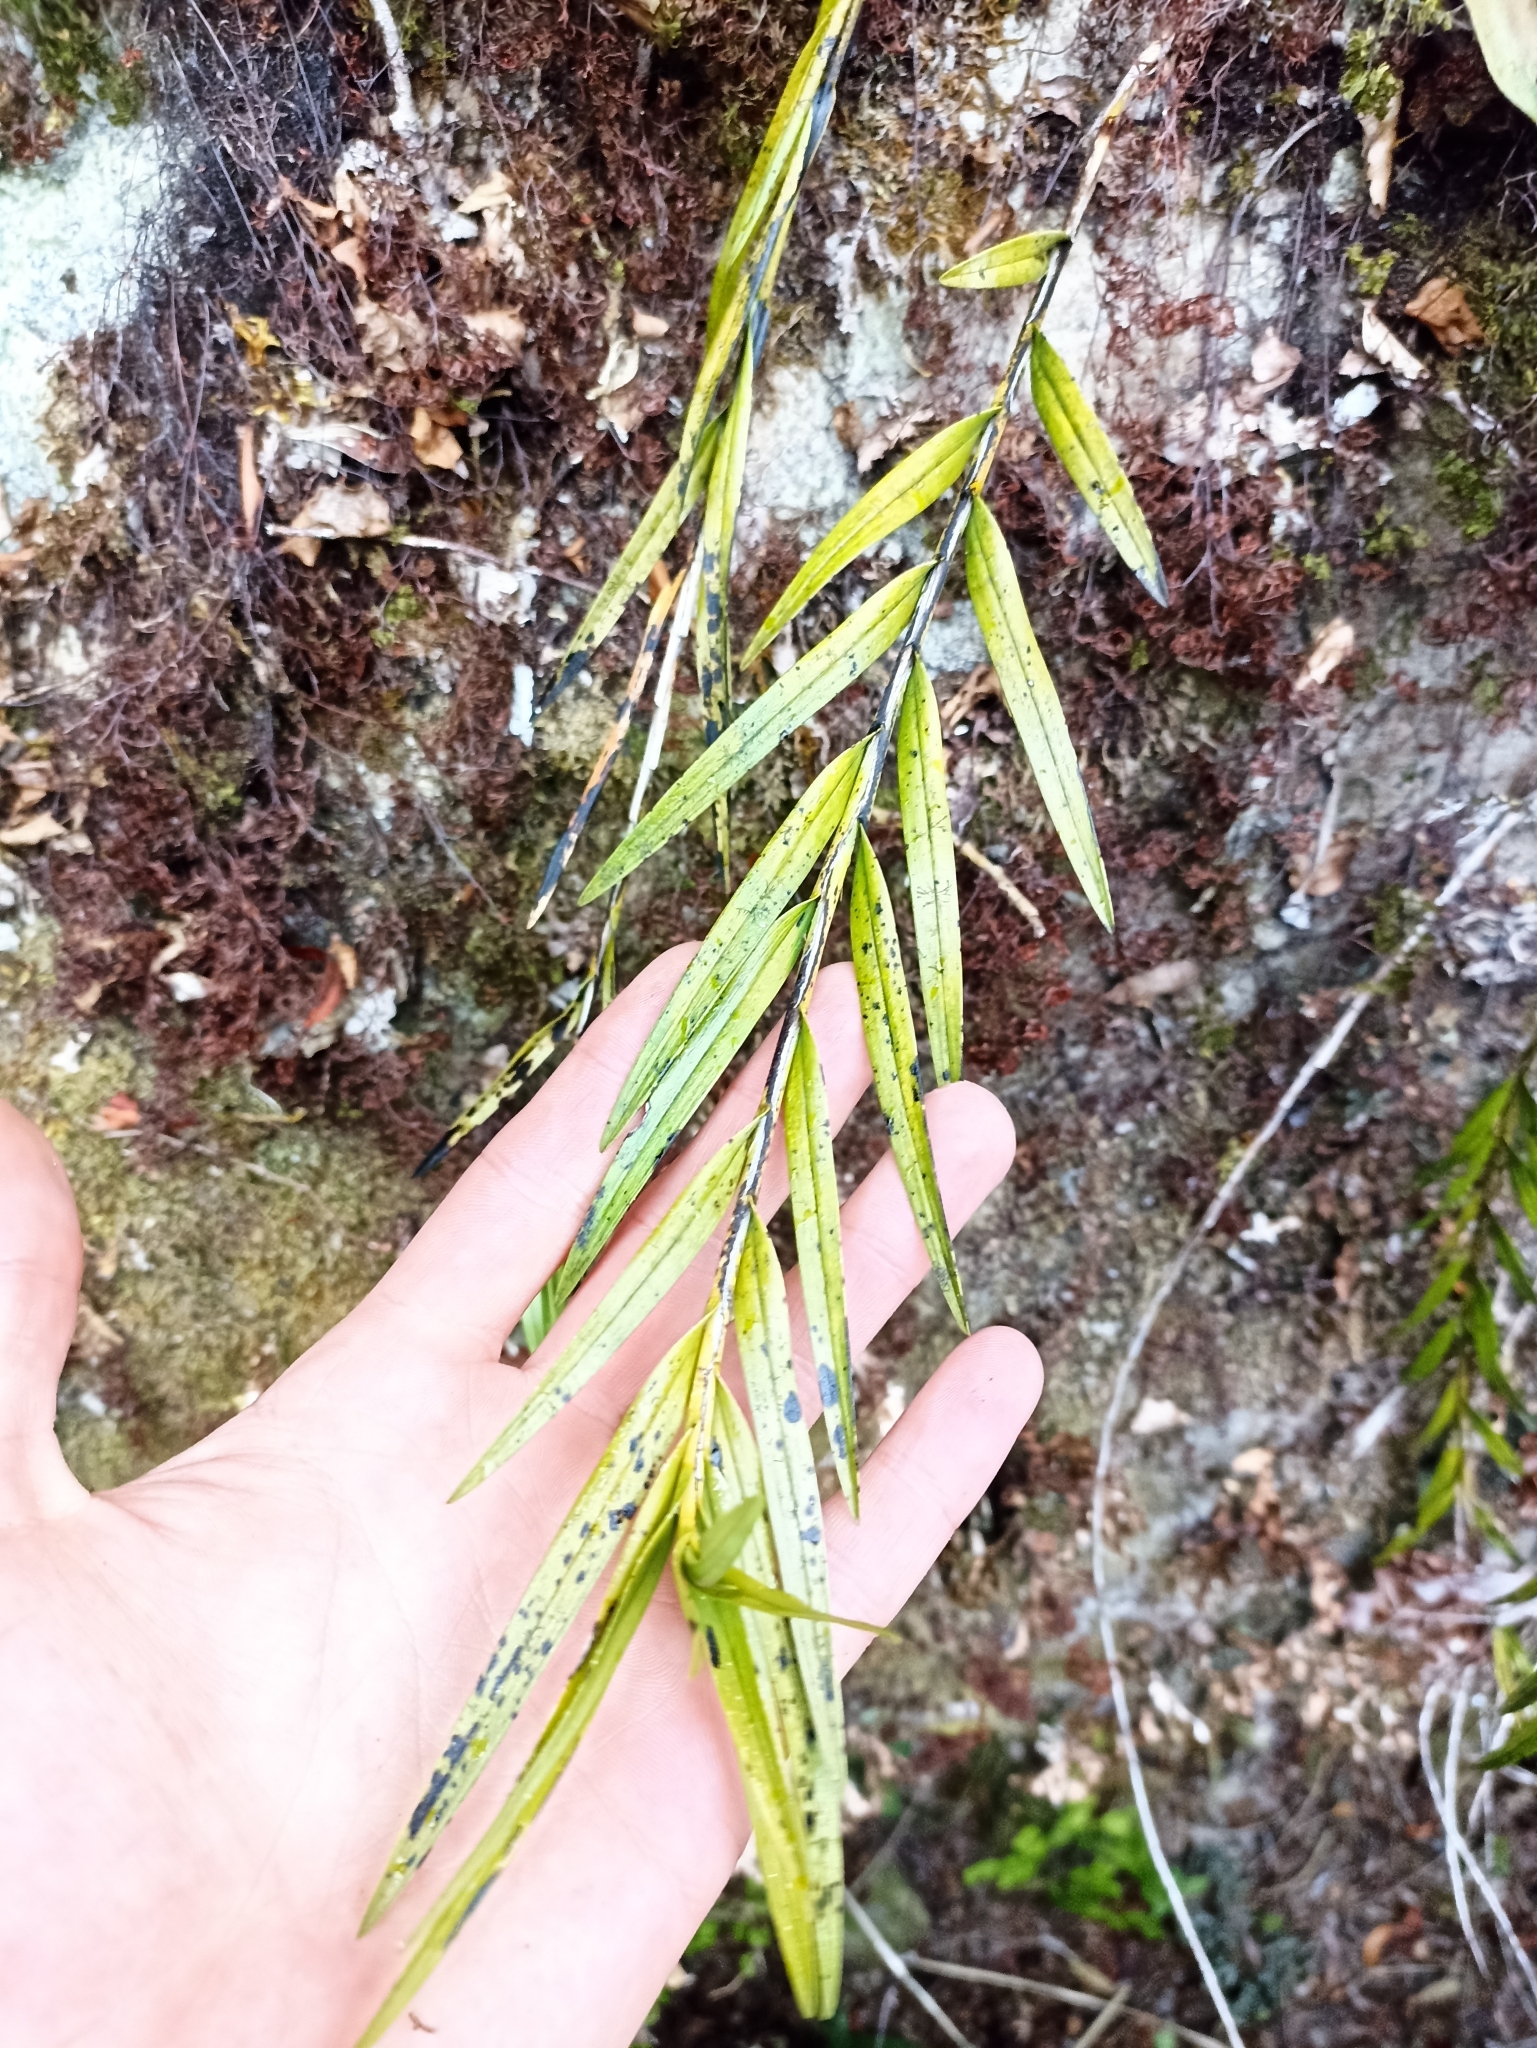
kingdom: Plantae
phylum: Tracheophyta
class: Liliopsida
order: Asparagales
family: Orchidaceae
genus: Earina
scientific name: Earina autumnalis
